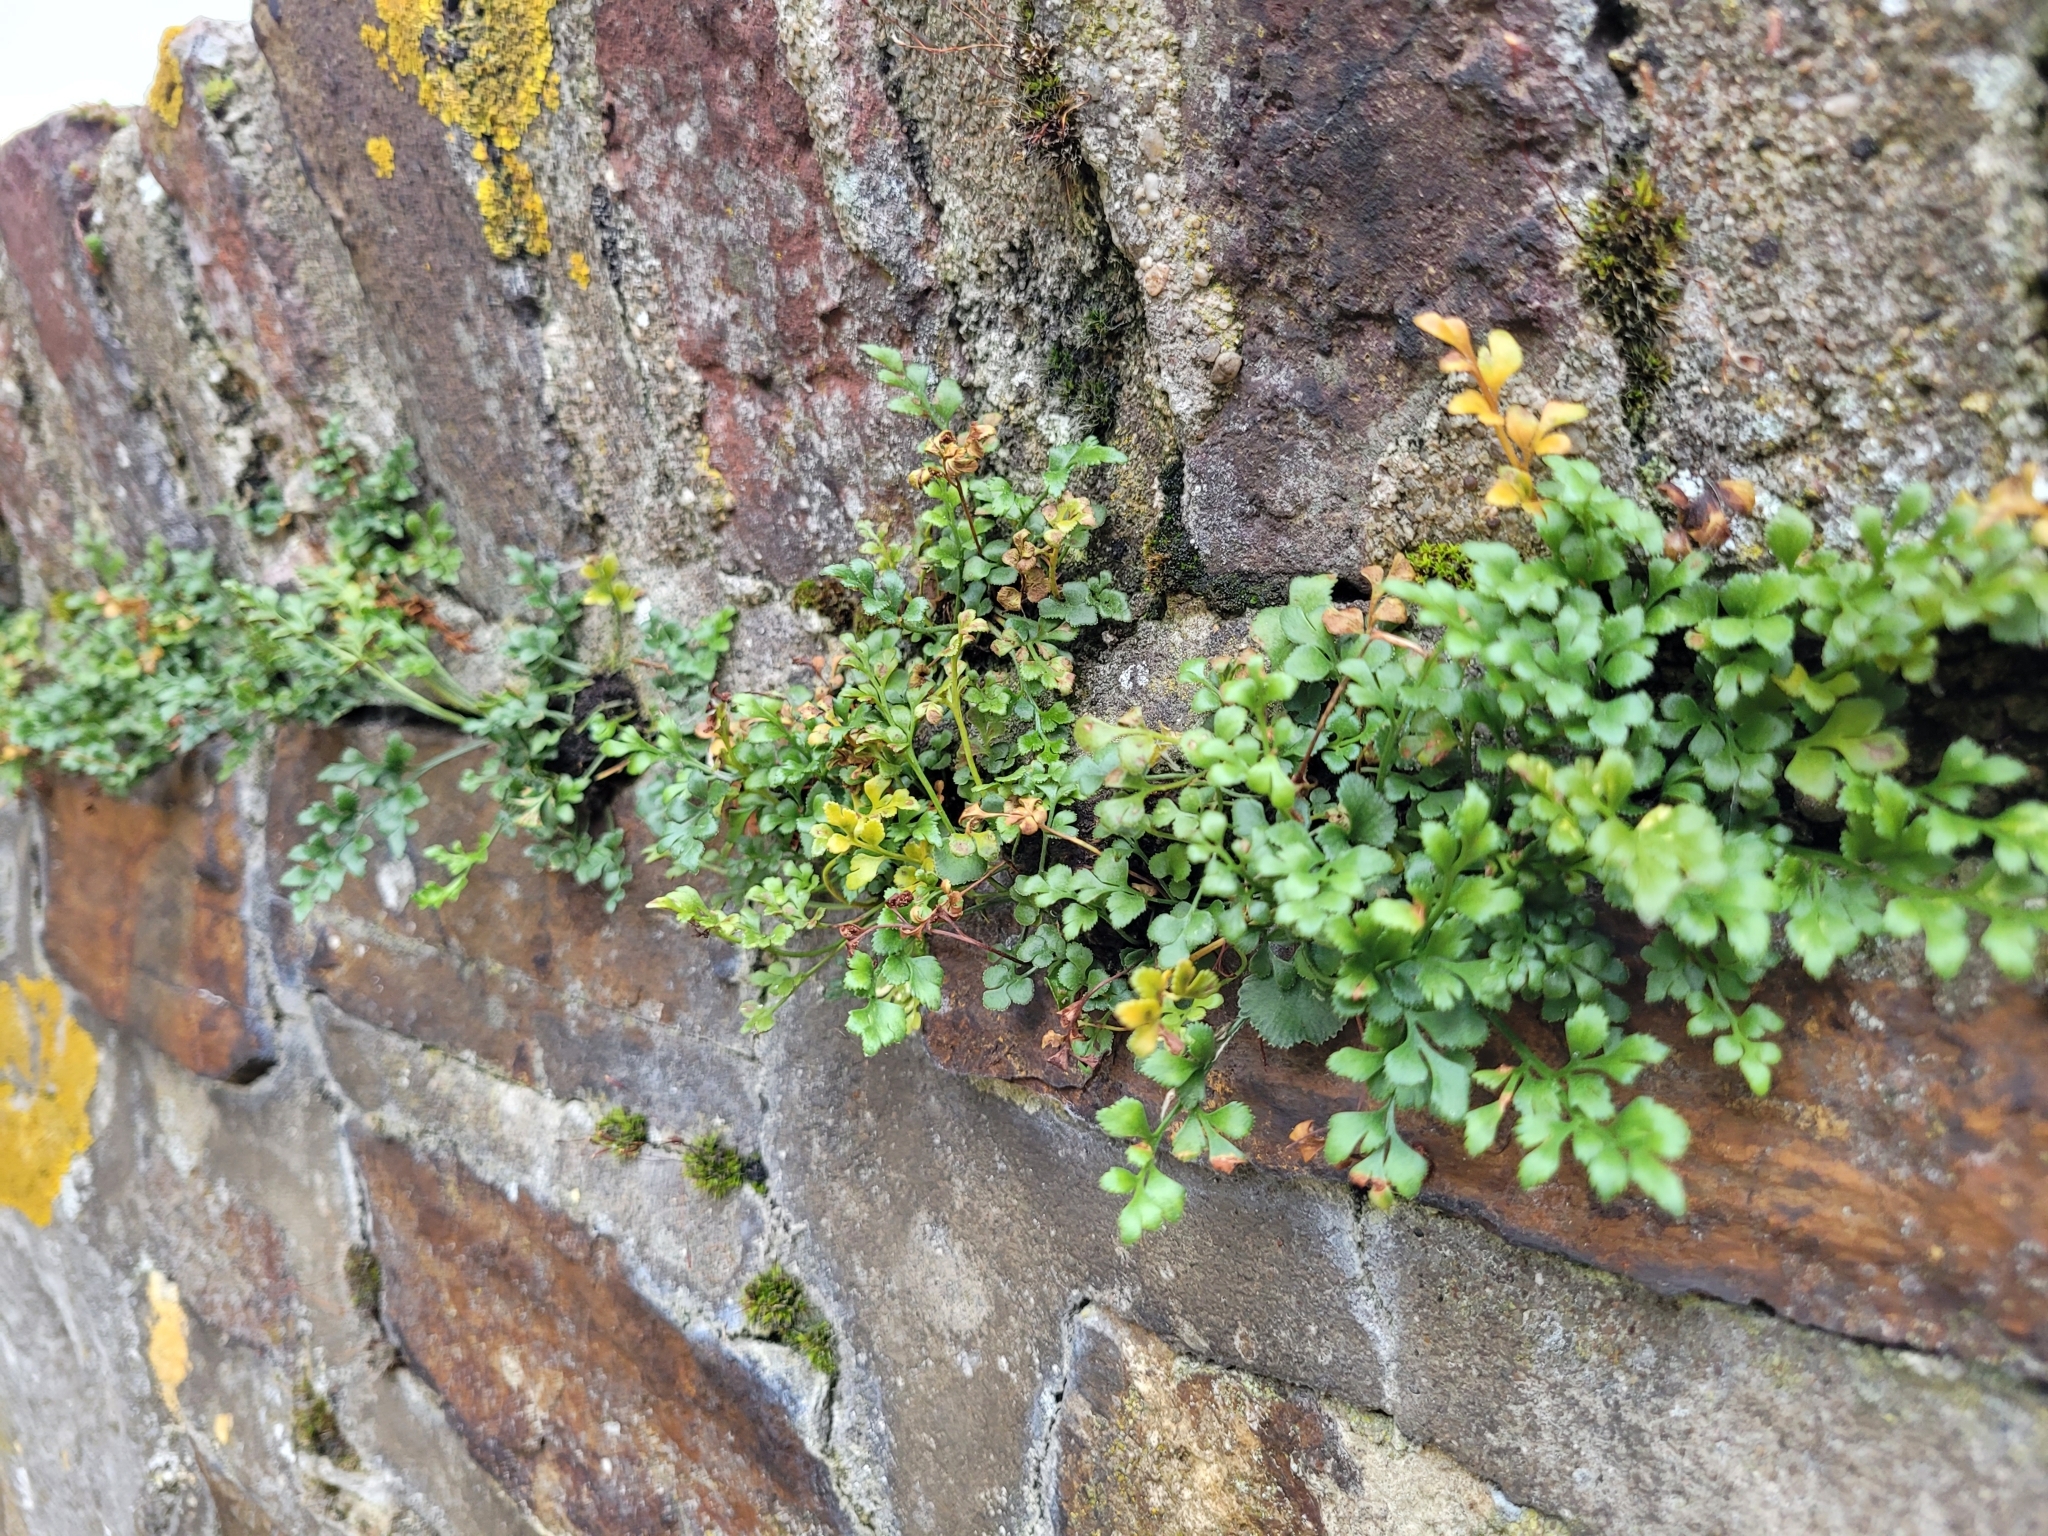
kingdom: Plantae
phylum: Tracheophyta
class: Polypodiopsida
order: Polypodiales
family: Aspleniaceae
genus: Asplenium
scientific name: Asplenium ruta-muraria
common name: Wall-rue
